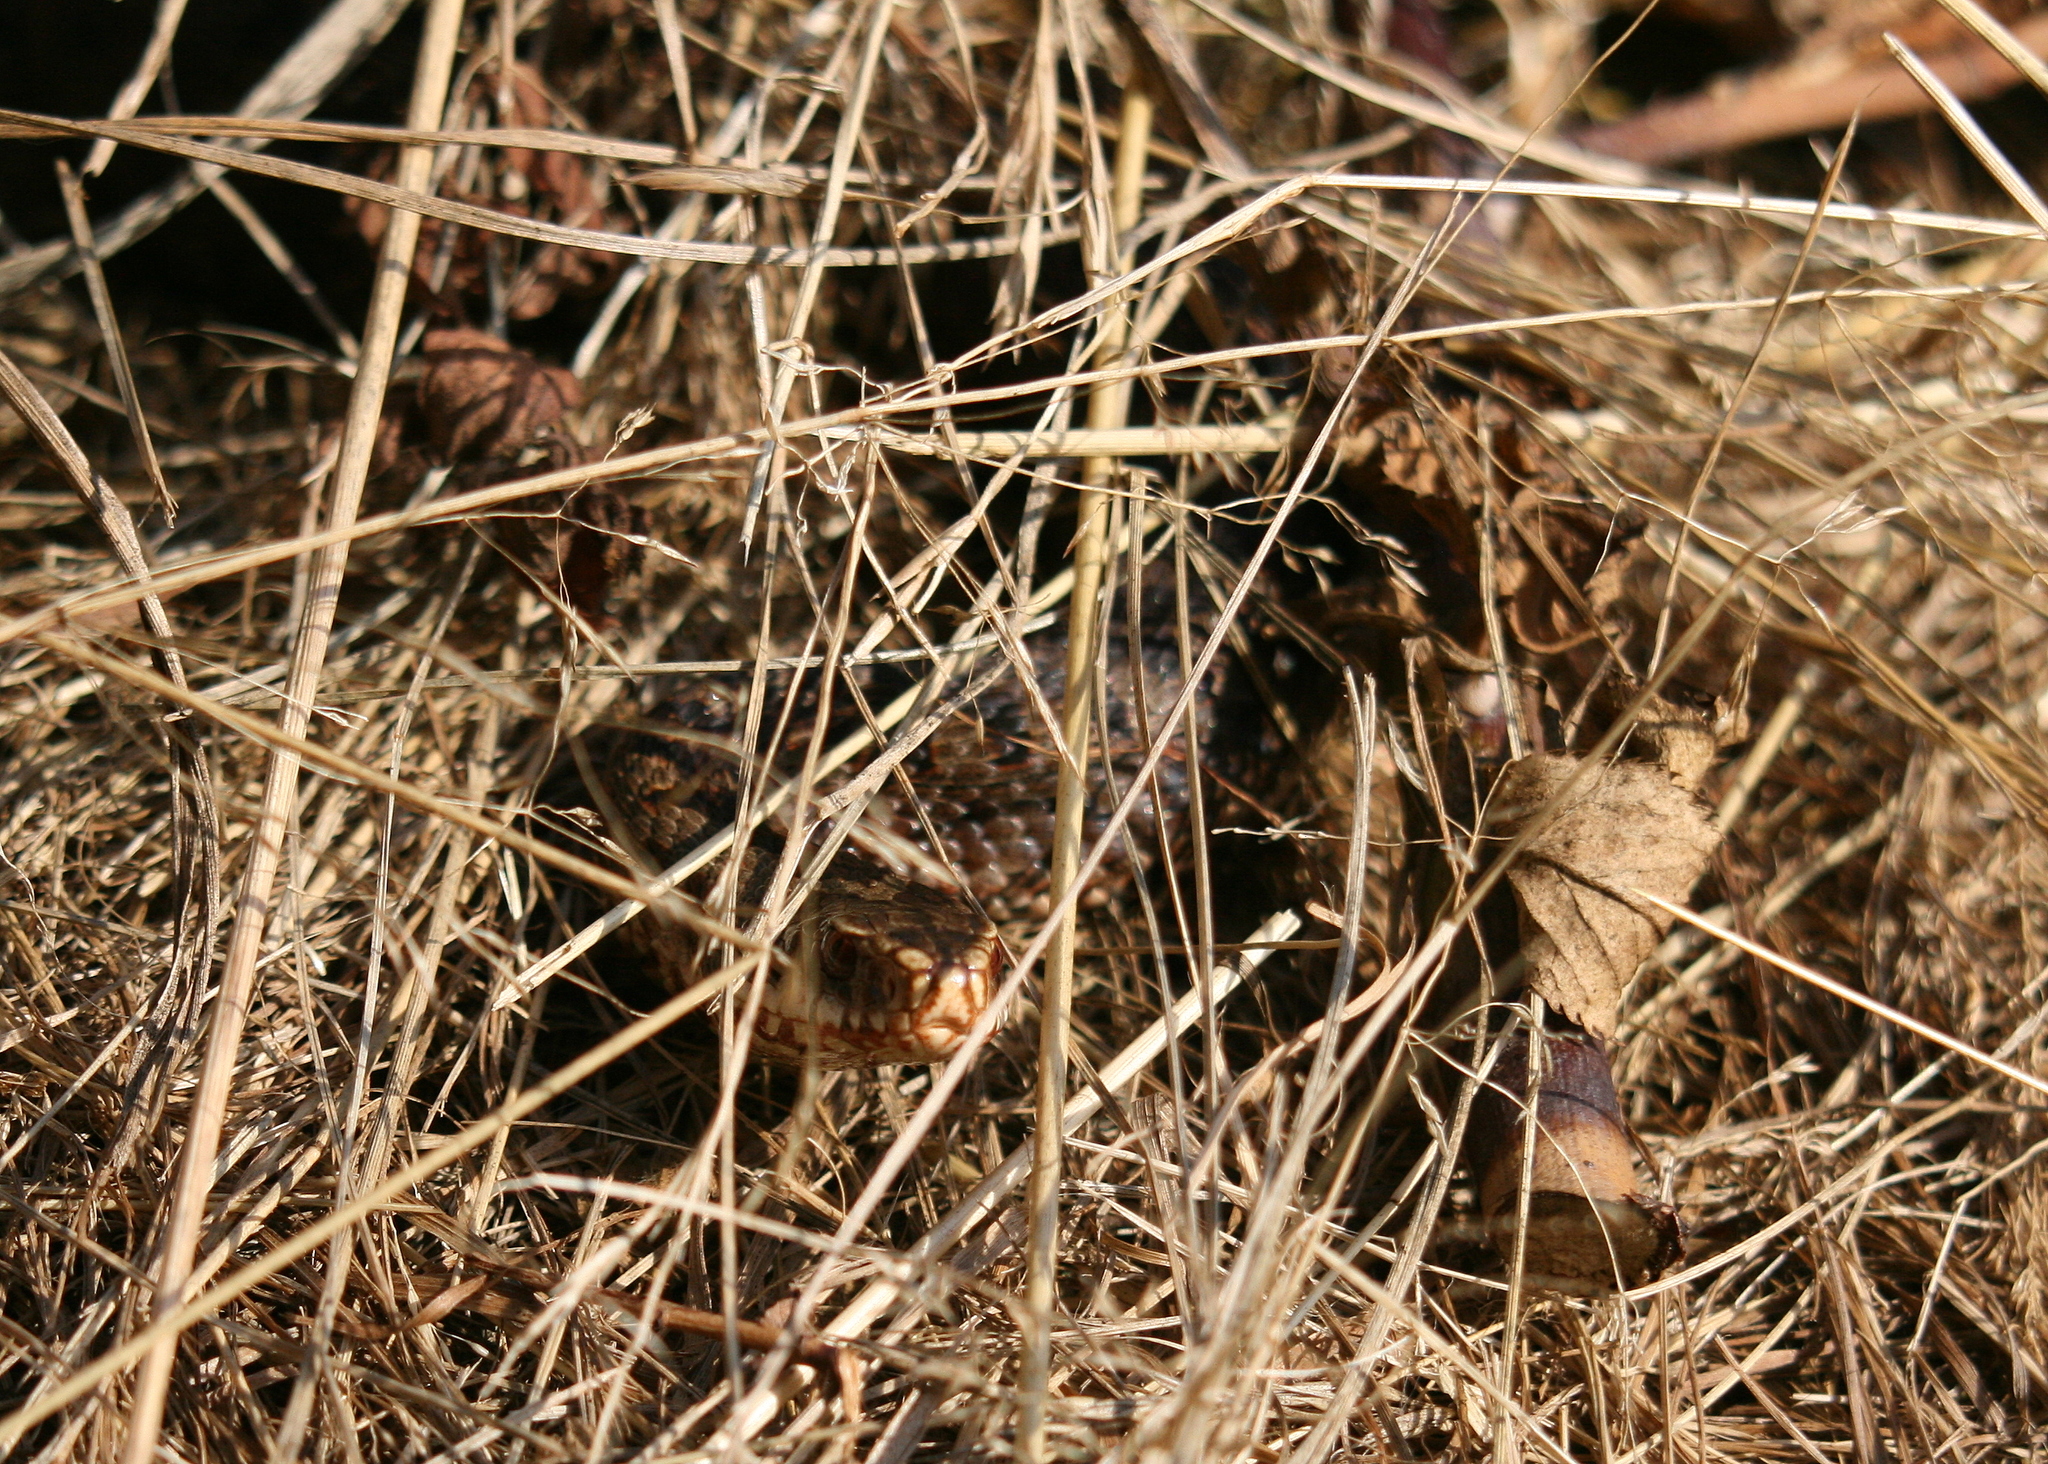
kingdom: Animalia
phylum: Chordata
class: Squamata
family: Viperidae
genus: Vipera
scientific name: Vipera berus
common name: Adder
